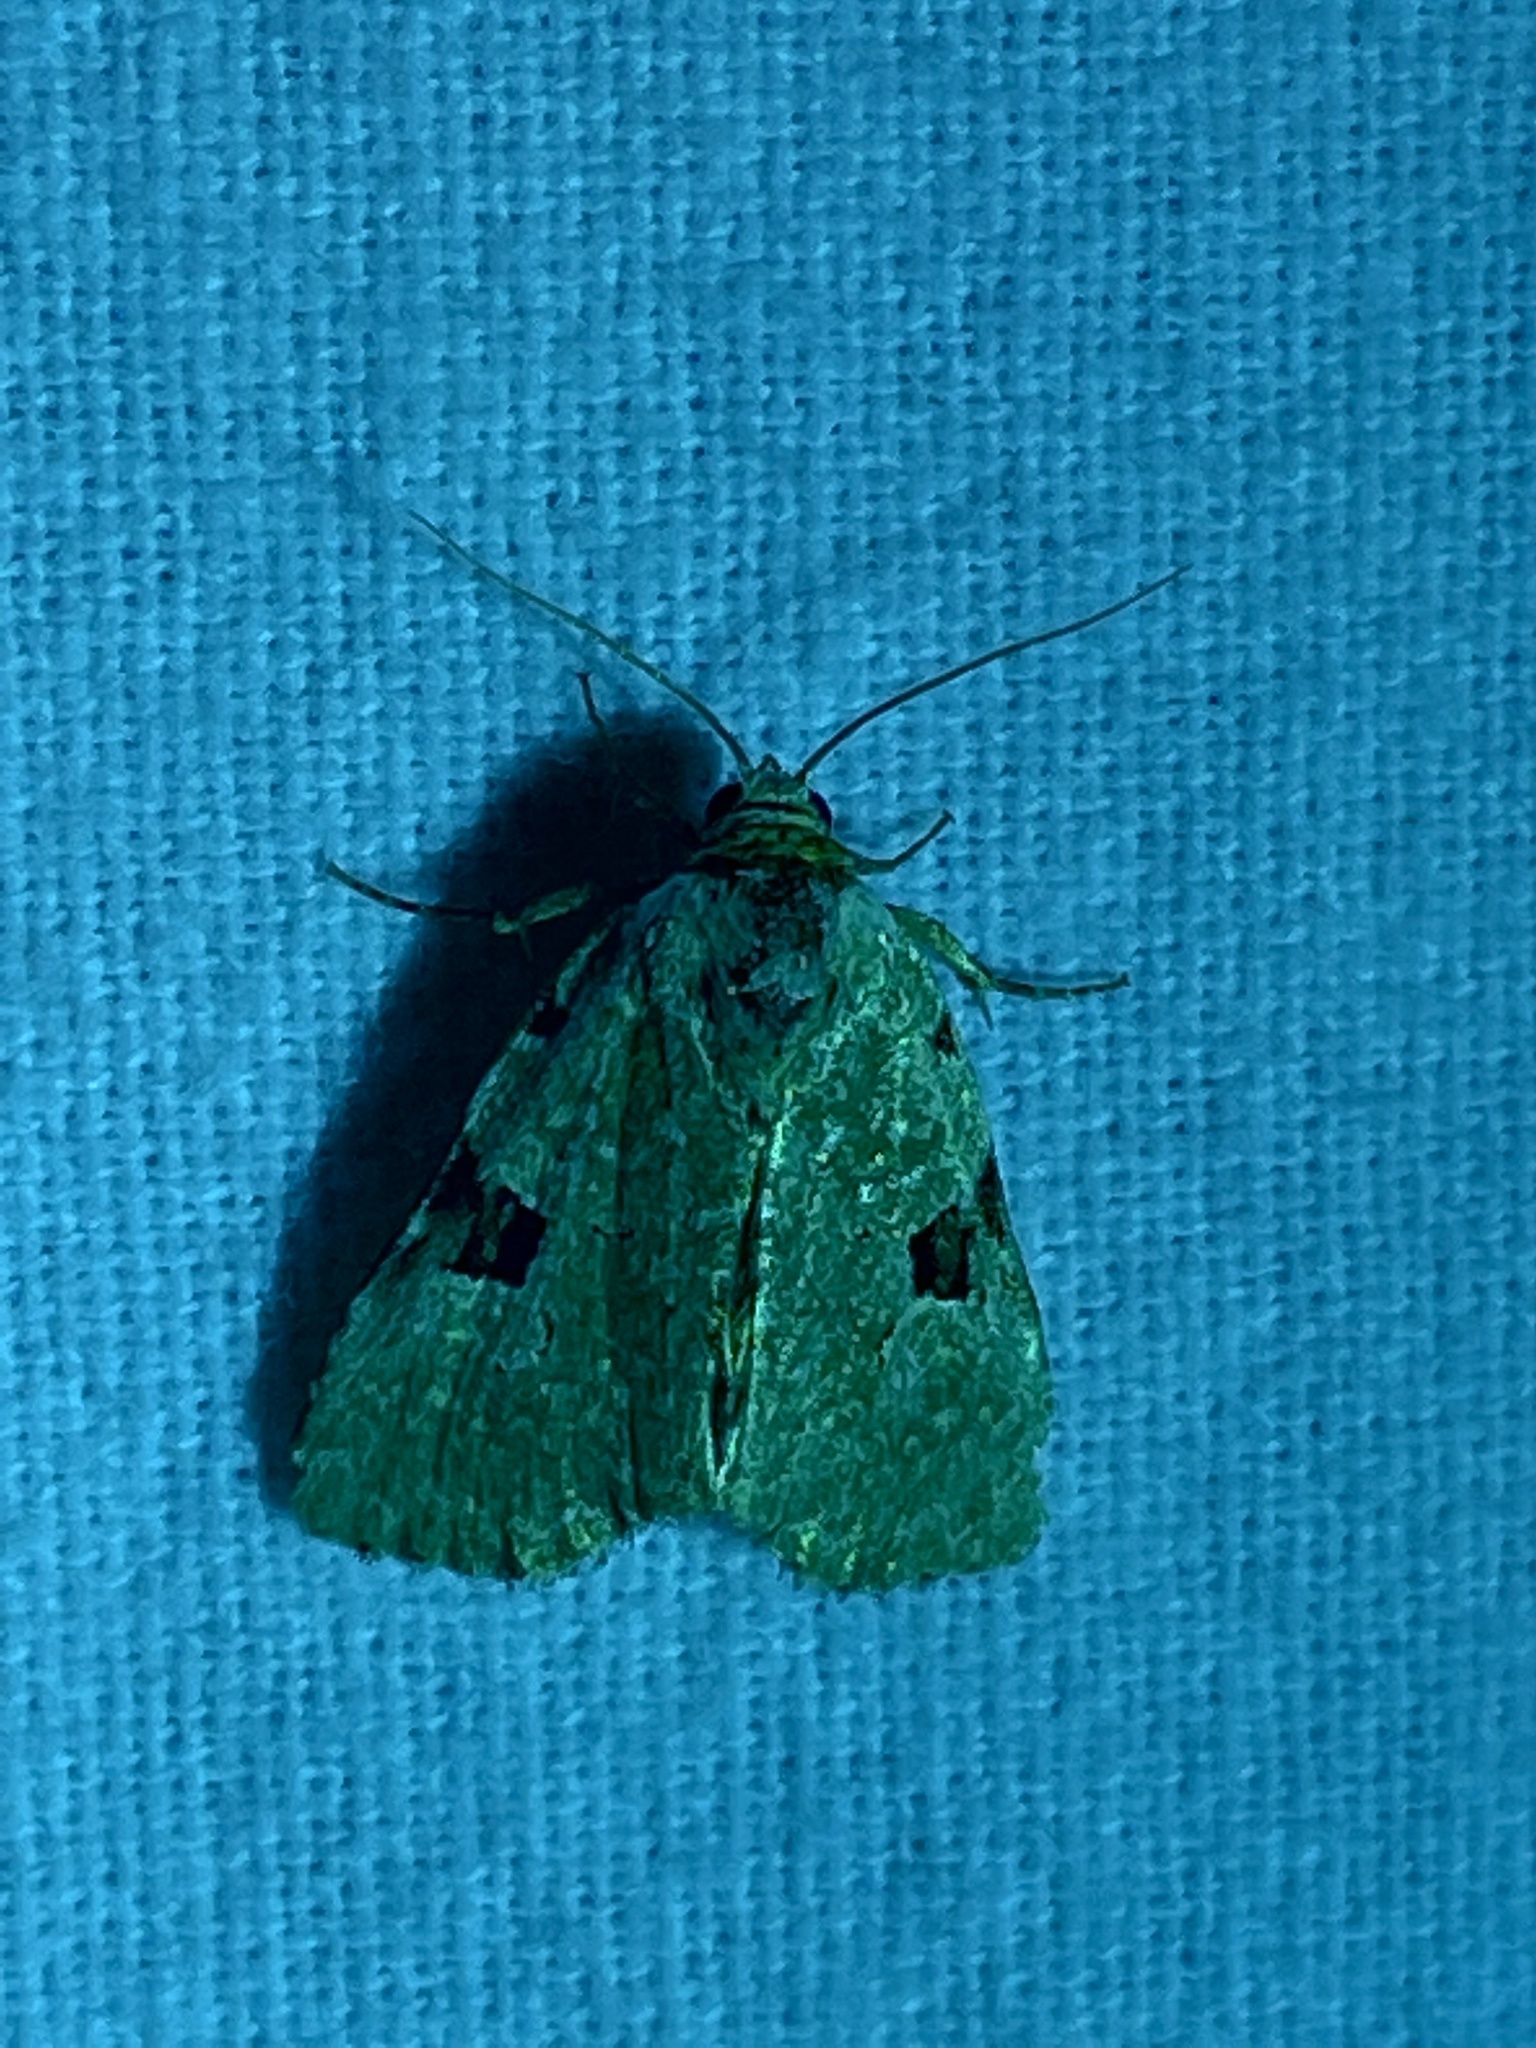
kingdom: Animalia
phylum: Arthropoda
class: Insecta
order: Lepidoptera
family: Noctuidae
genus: Leuconycta
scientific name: Leuconycta diphteroides
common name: Green leuconycta moth
